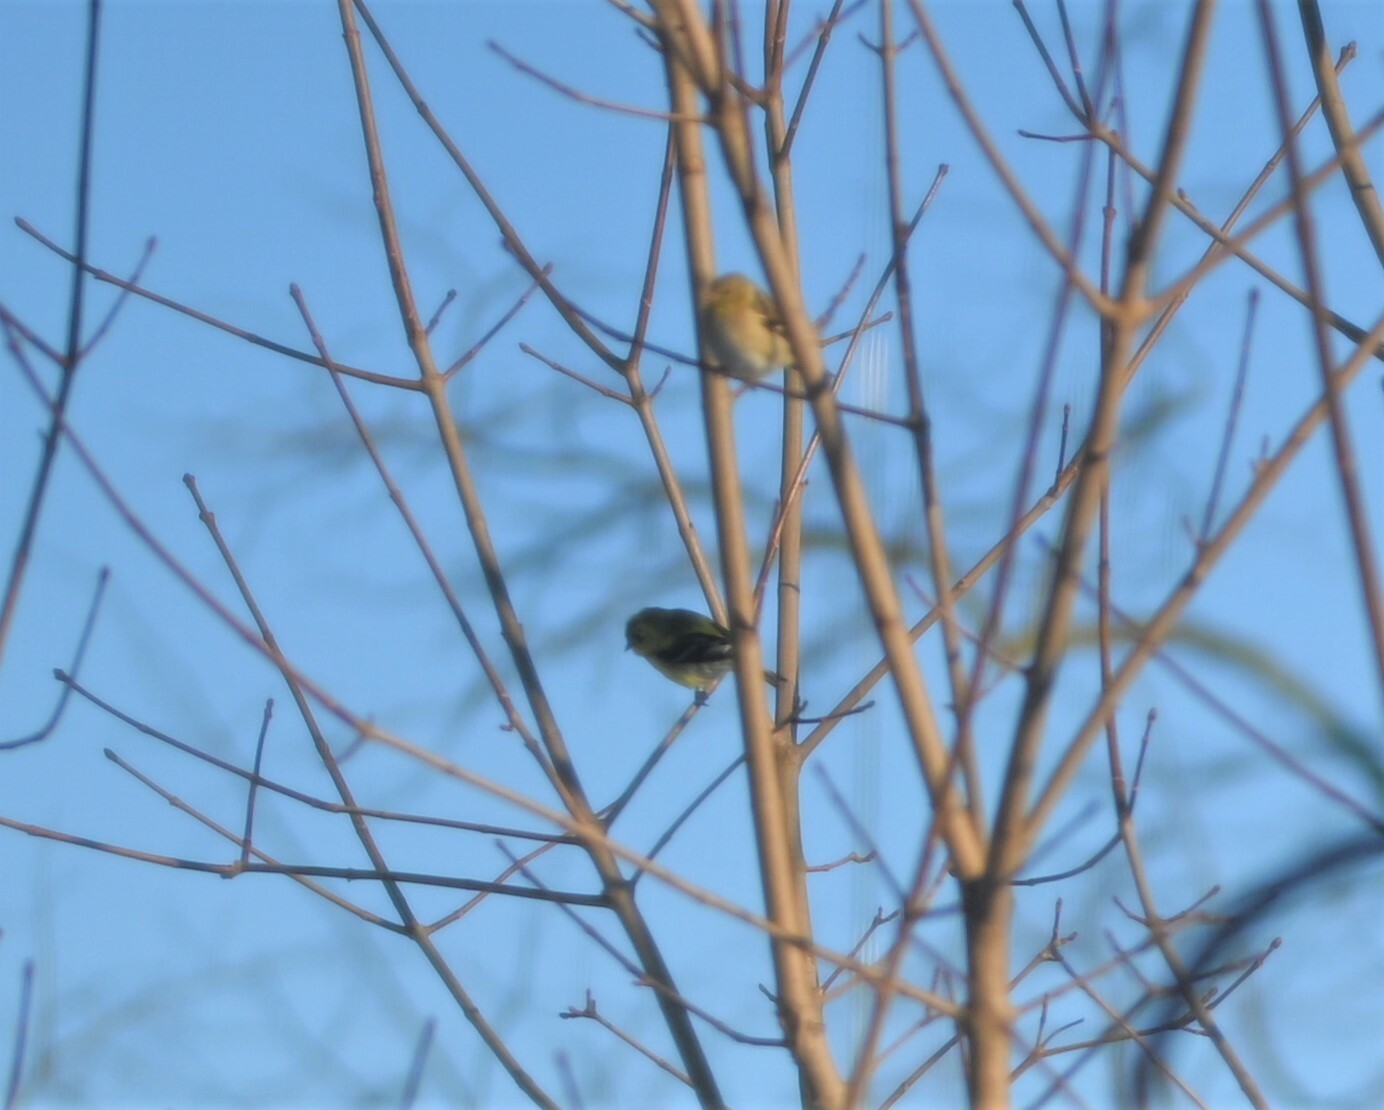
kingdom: Animalia
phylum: Chordata
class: Aves
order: Passeriformes
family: Fringillidae
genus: Spinus
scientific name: Spinus tristis
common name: American goldfinch
